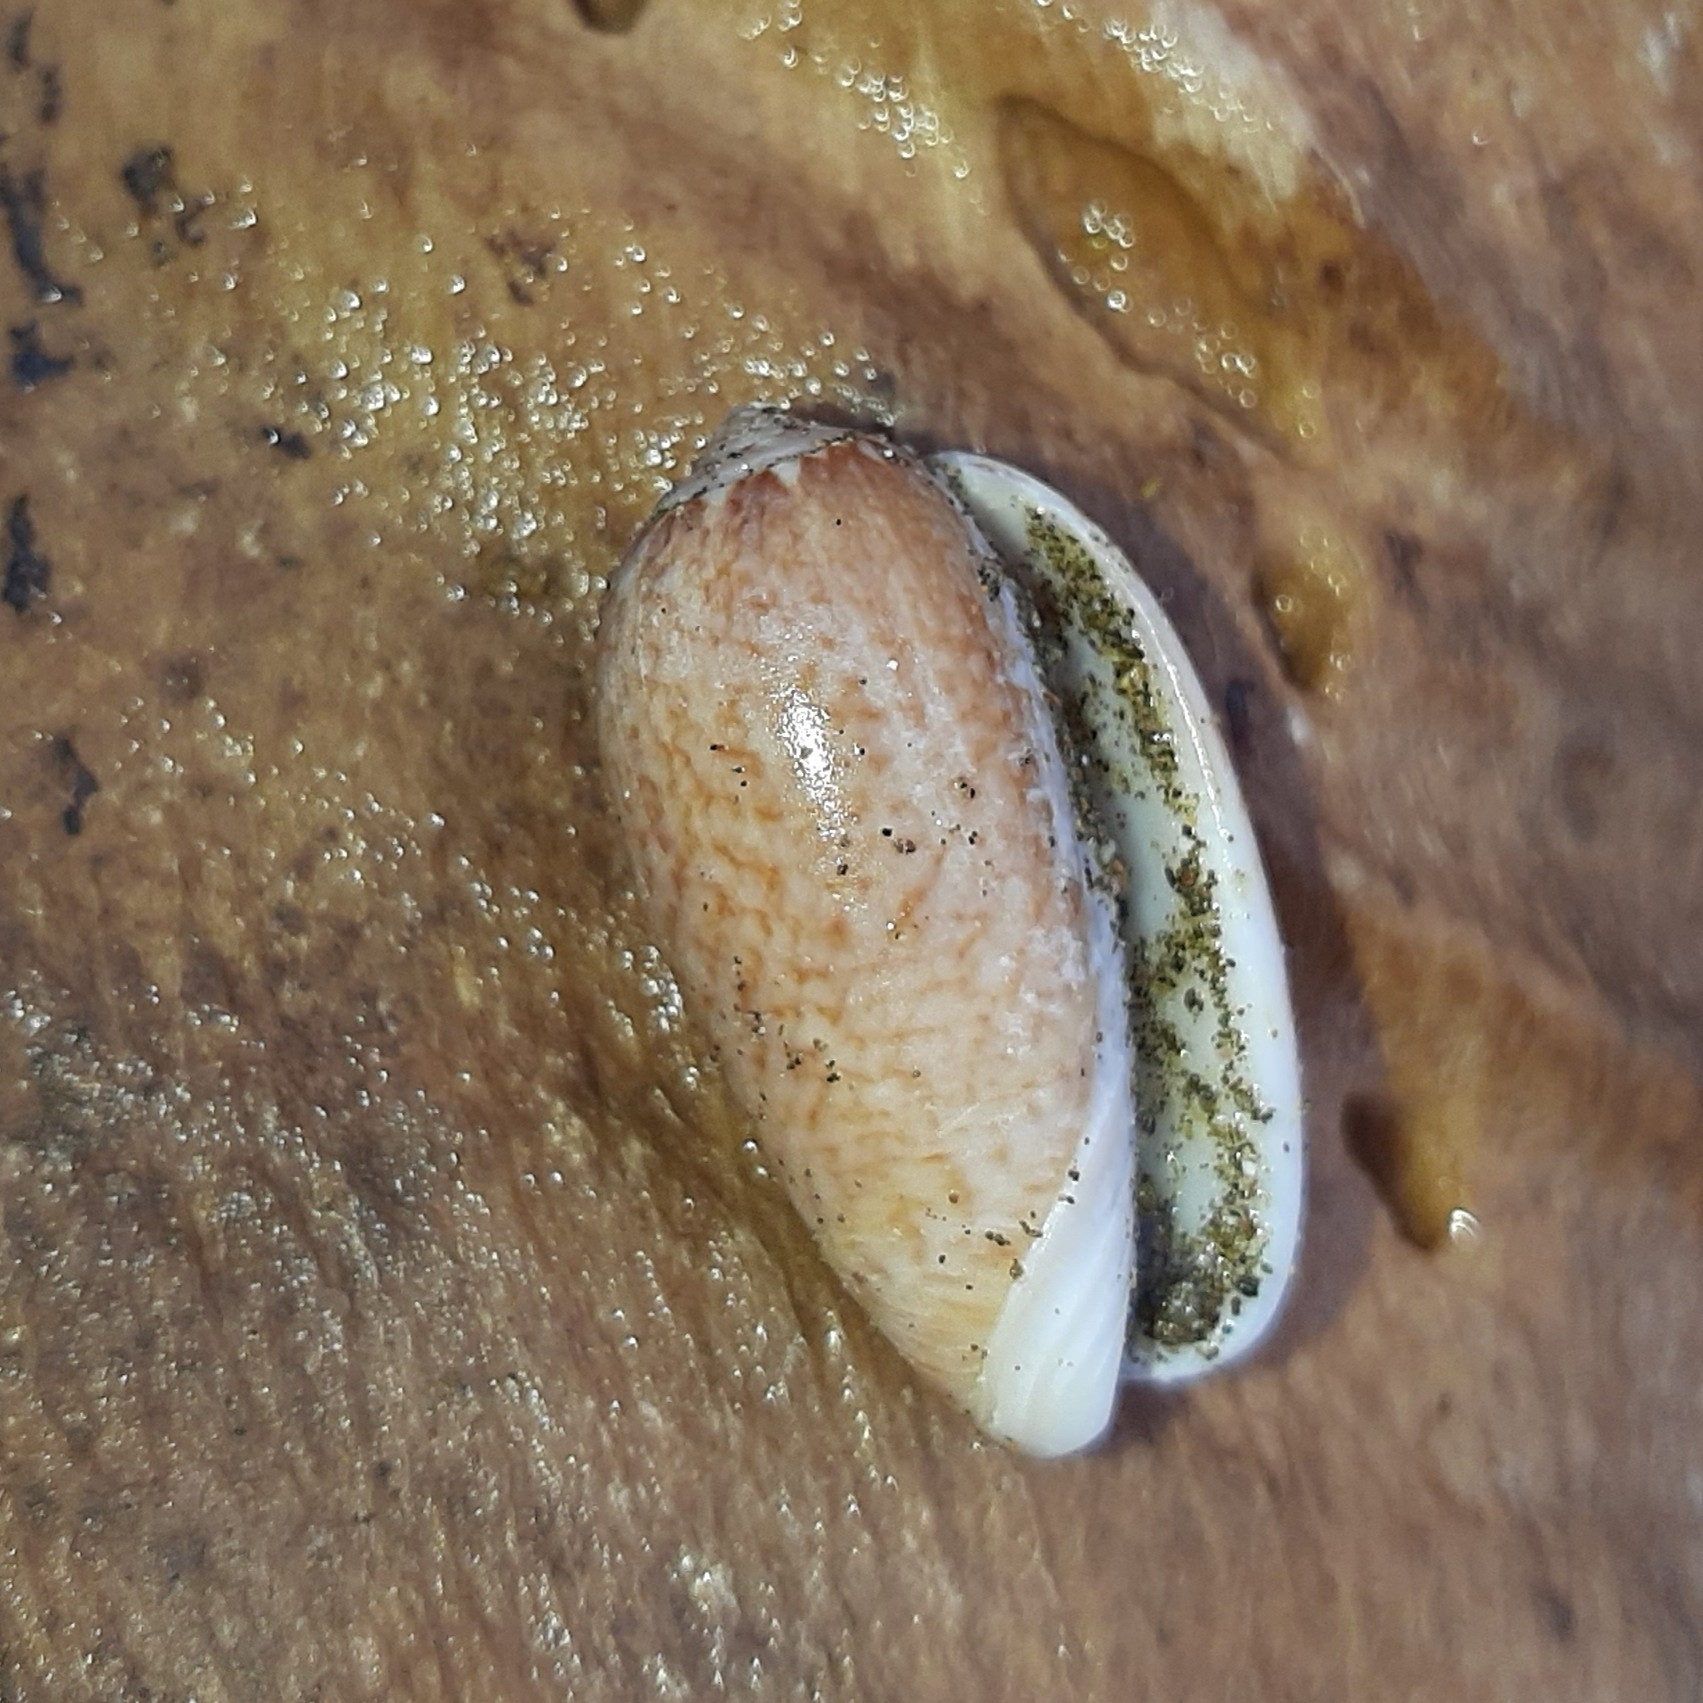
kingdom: Animalia
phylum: Mollusca
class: Gastropoda
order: Neogastropoda
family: Olividae
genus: Oliva
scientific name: Oliva truncata
